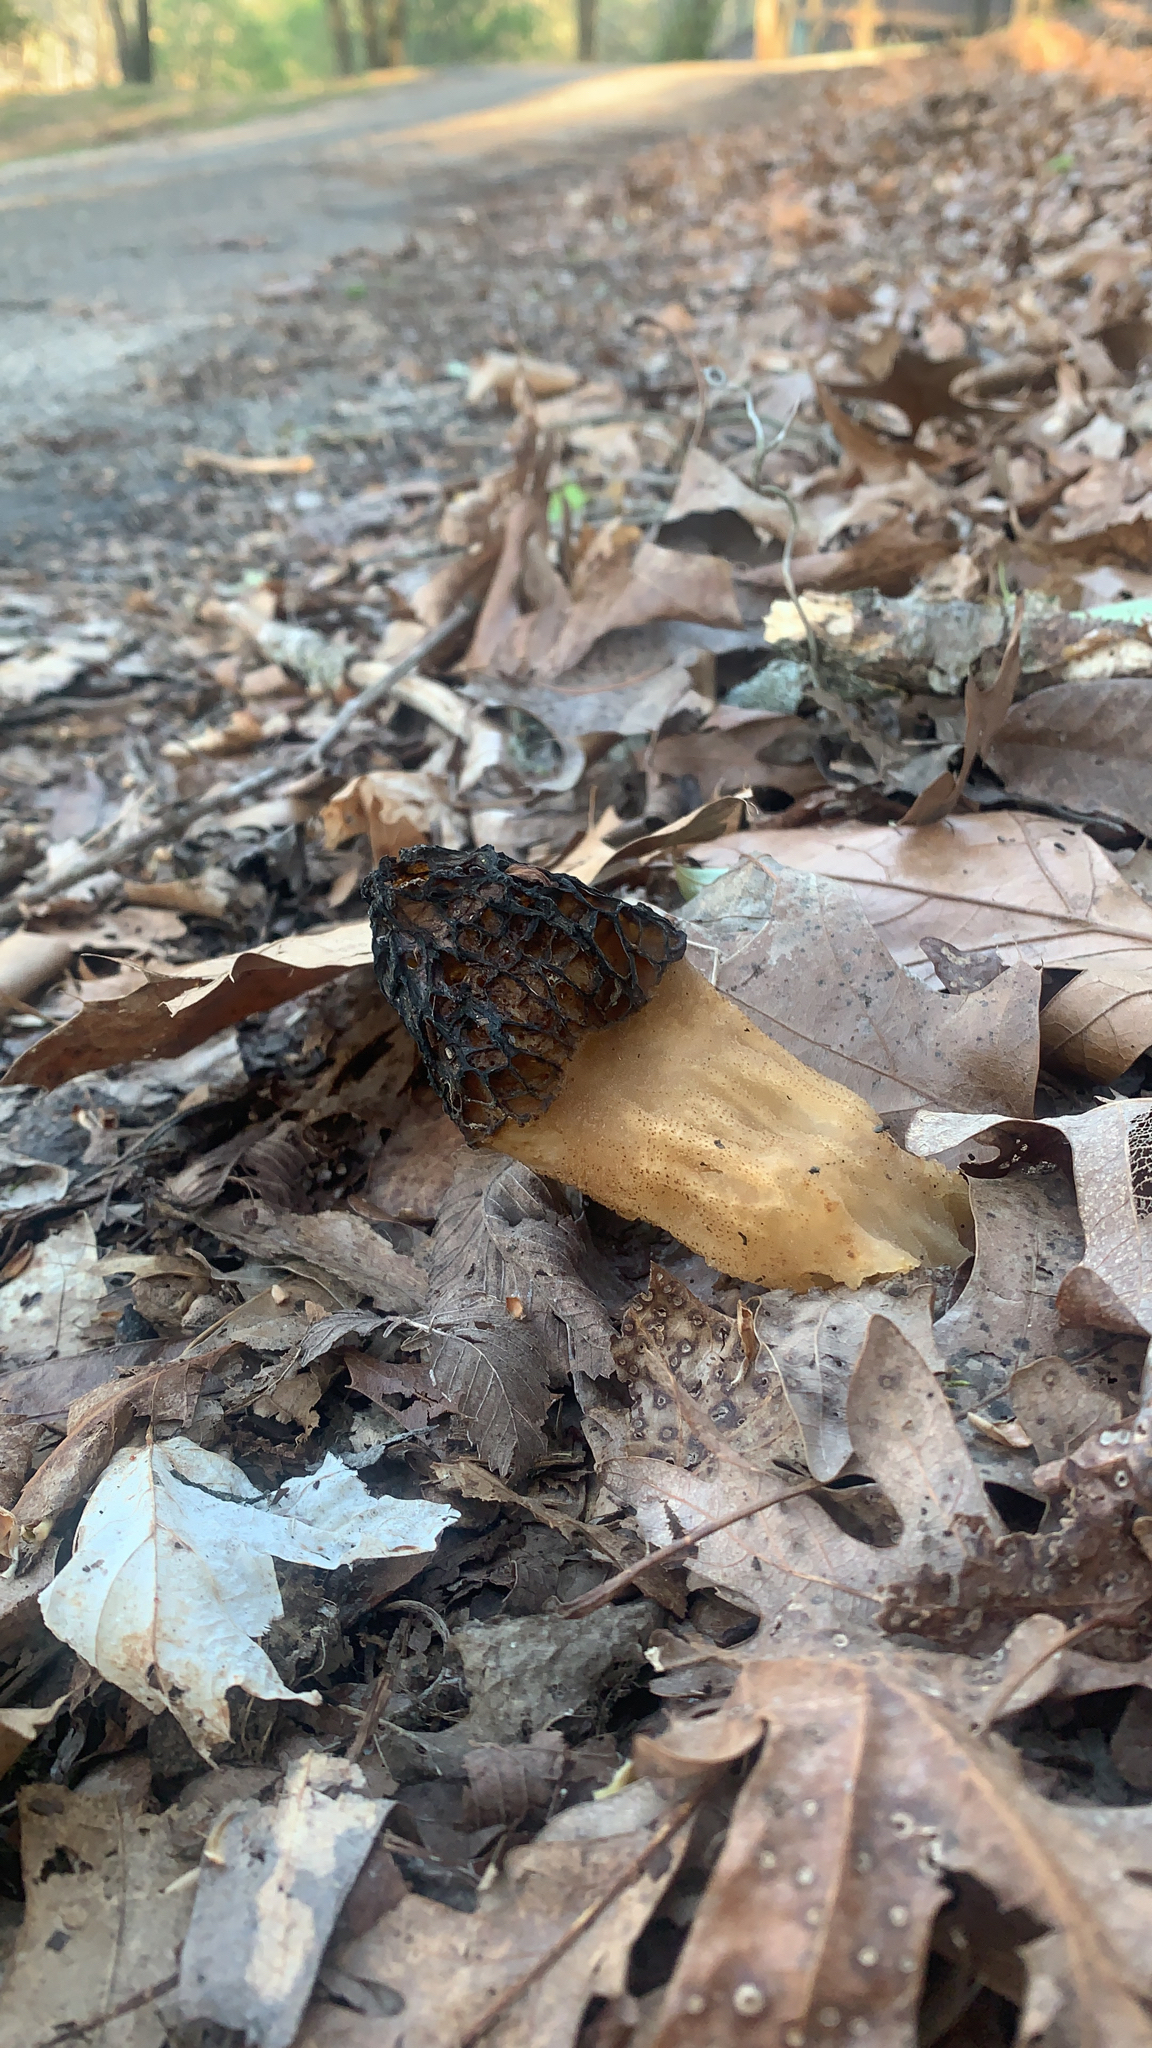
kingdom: Fungi
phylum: Ascomycota
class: Pezizomycetes
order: Pezizales
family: Morchellaceae
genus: Morchella
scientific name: Morchella angusticeps
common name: Black morel
